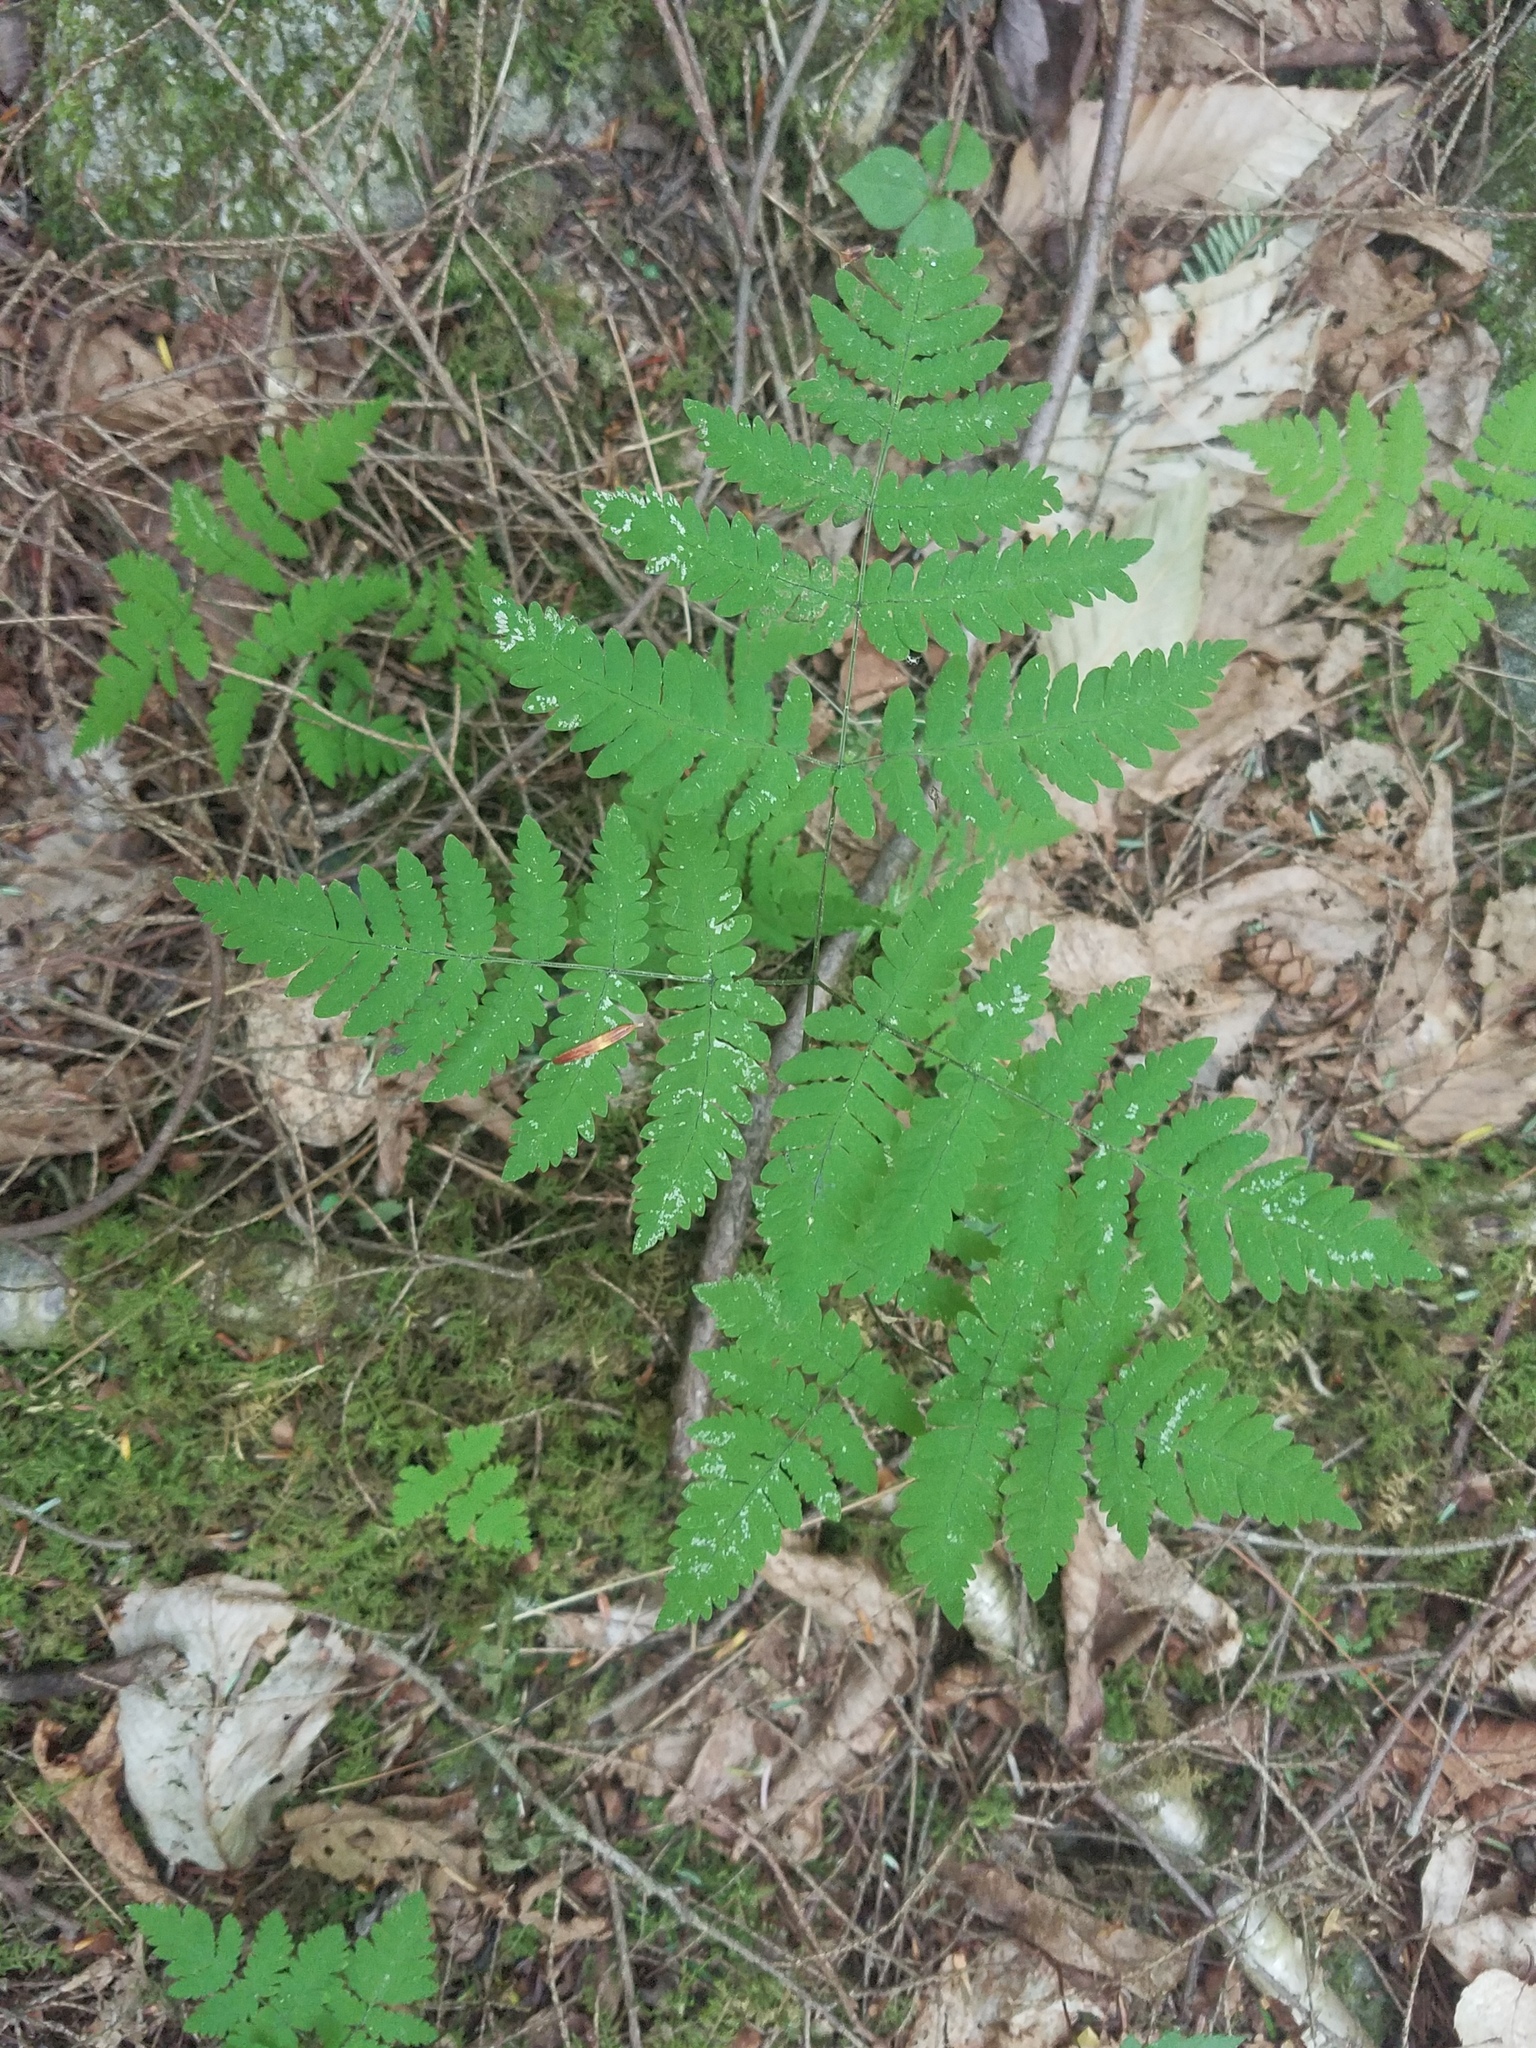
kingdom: Plantae
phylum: Tracheophyta
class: Polypodiopsida
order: Polypodiales
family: Cystopteridaceae
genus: Gymnocarpium
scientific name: Gymnocarpium dryopteris
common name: Oak fern
